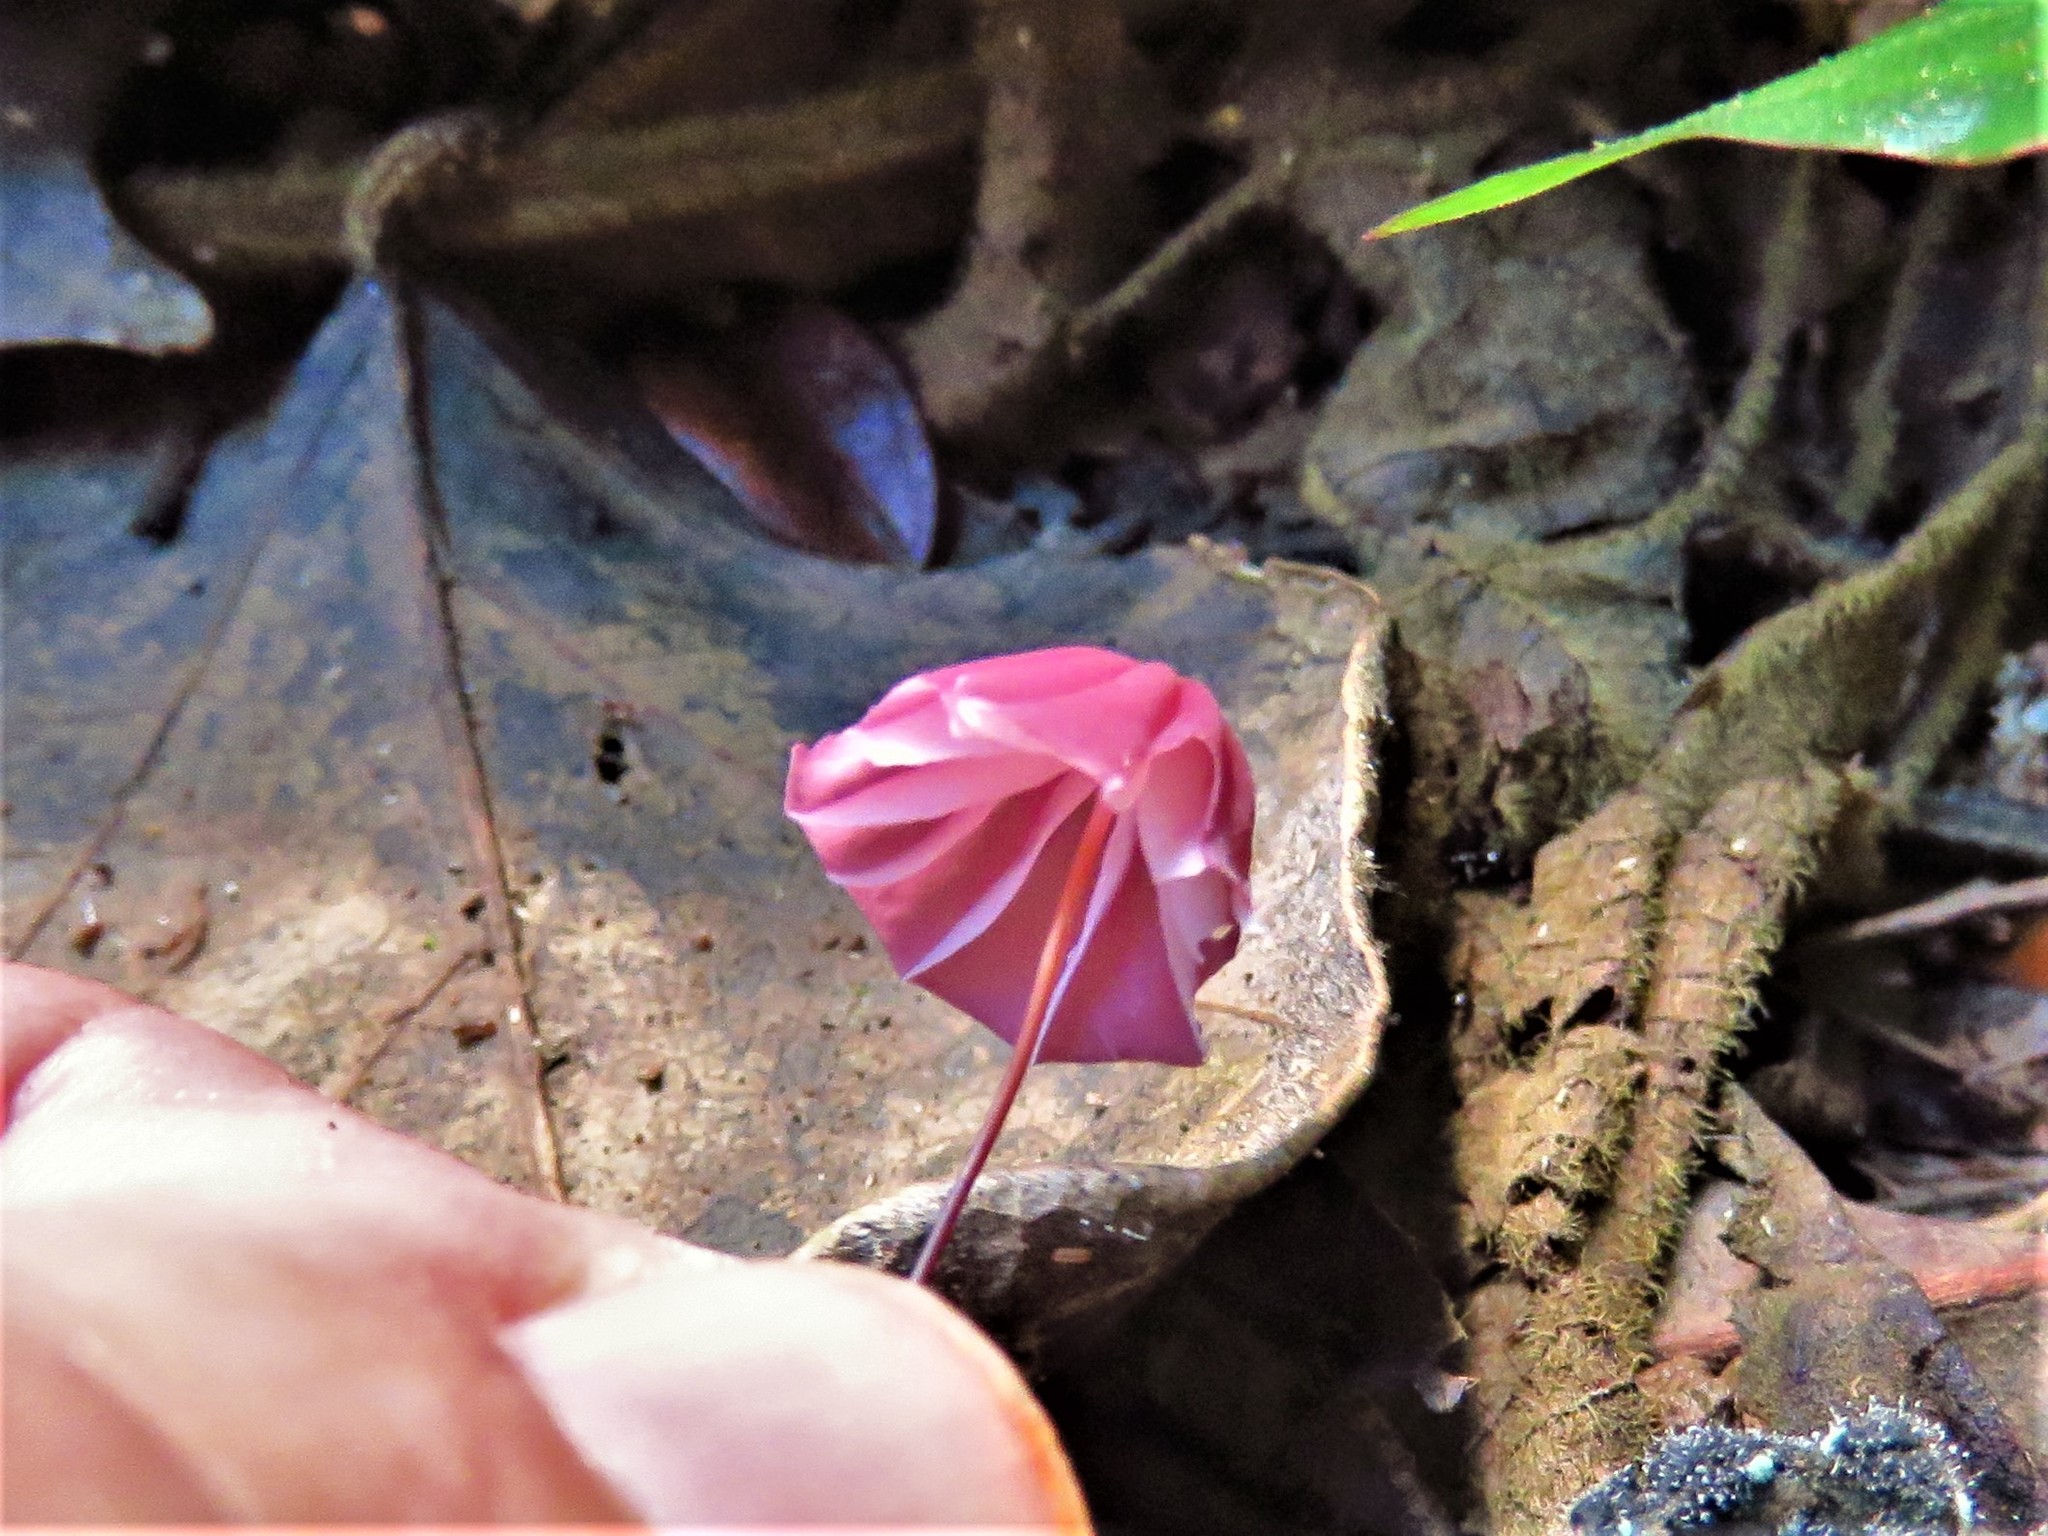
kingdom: Fungi
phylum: Basidiomycota
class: Agaricomycetes
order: Agaricales
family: Marasmiaceae
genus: Marasmius
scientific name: Marasmius haematocephalus
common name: Purple pinwheel
